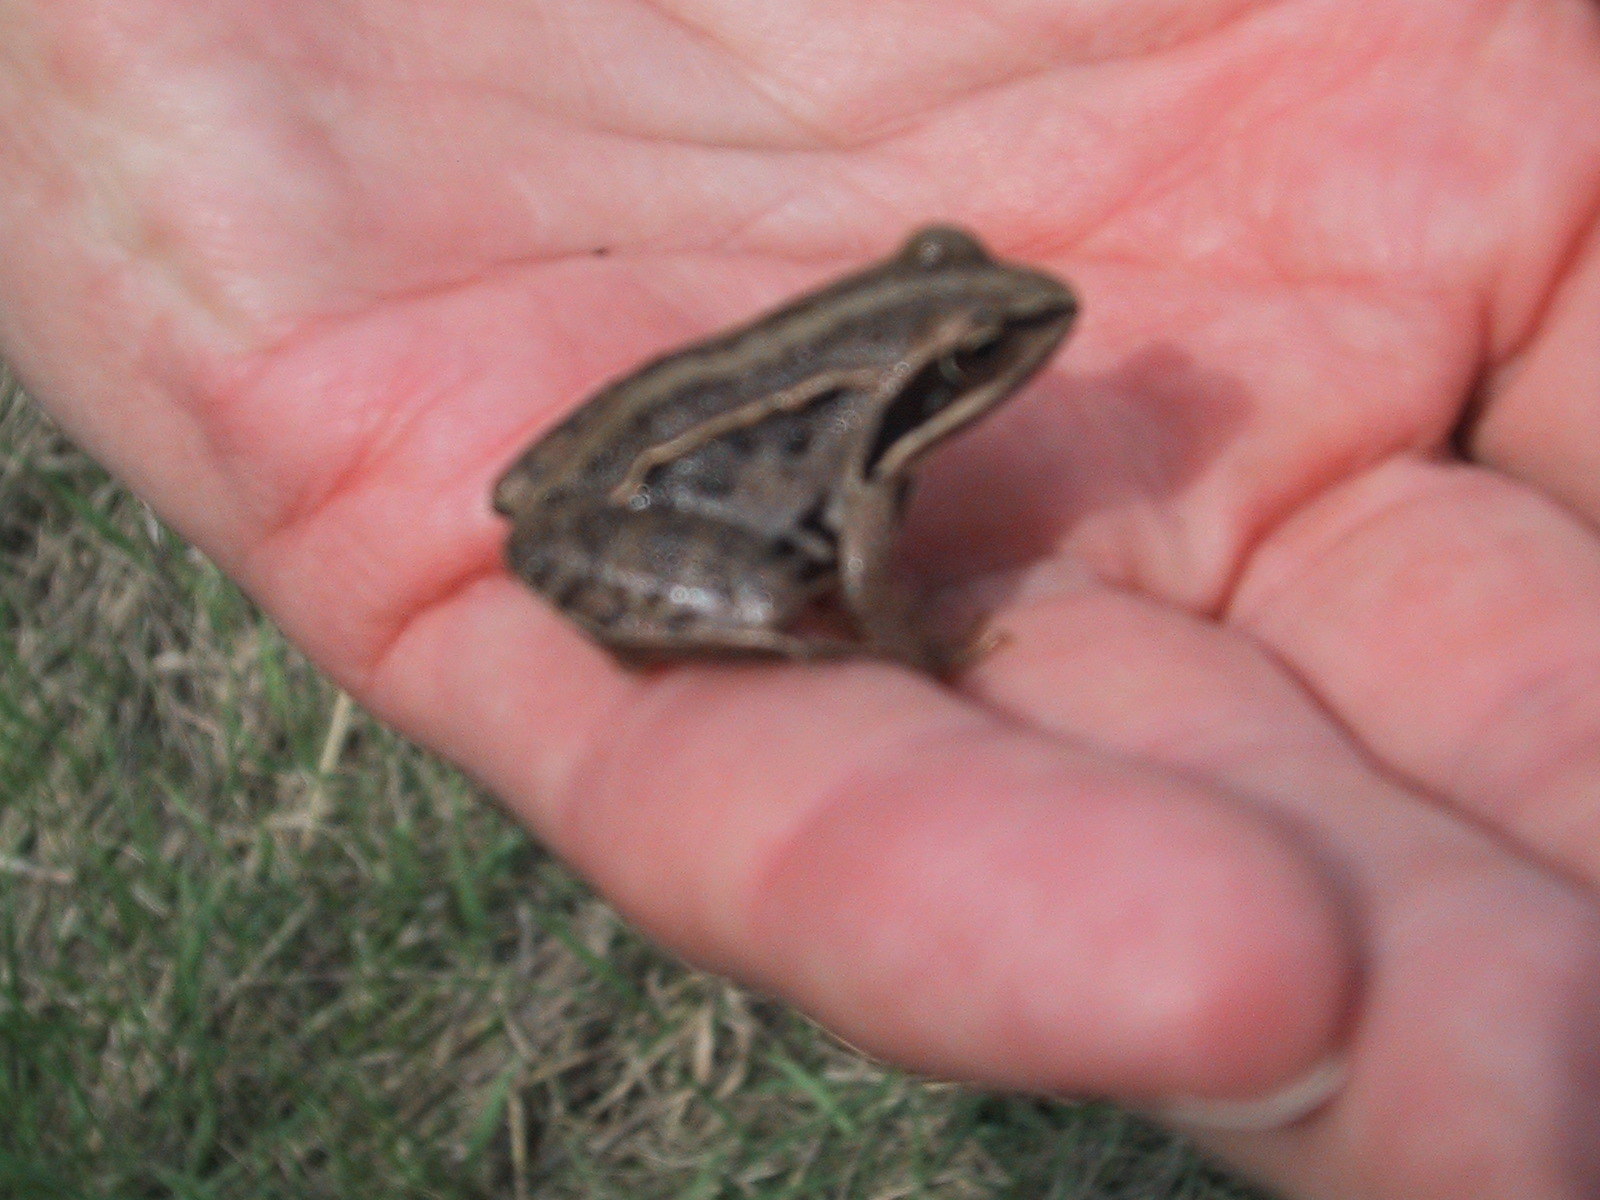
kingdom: Animalia
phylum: Chordata
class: Amphibia
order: Anura
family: Ranidae
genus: Rana
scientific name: Rana arvalis
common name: Moor frog
